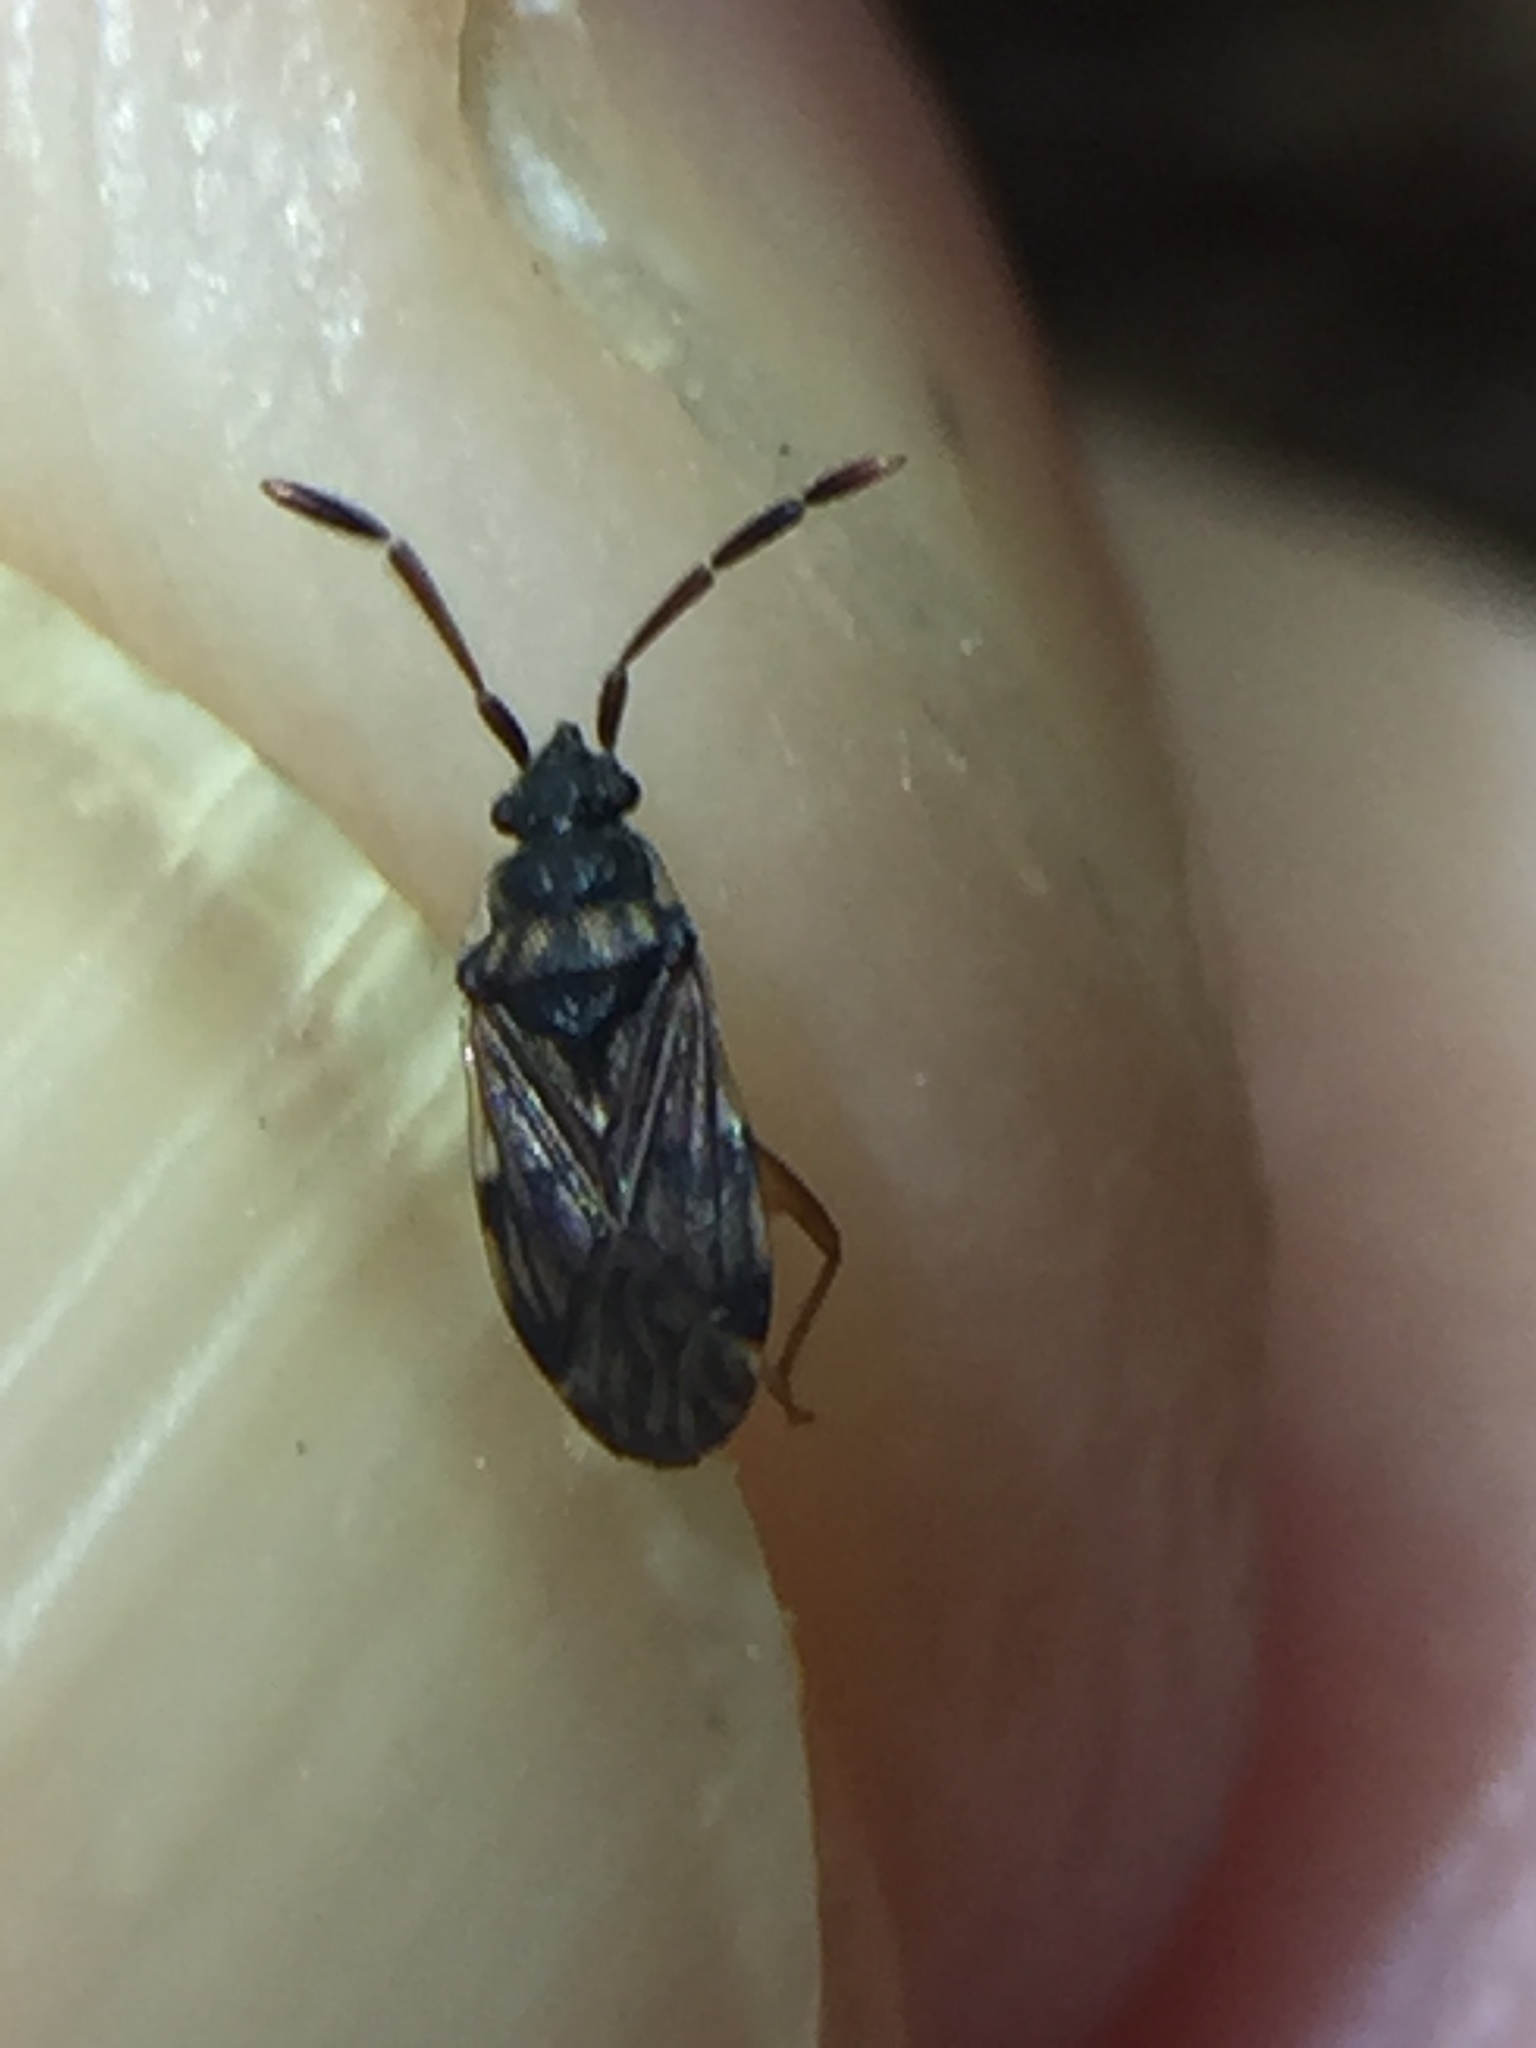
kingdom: Animalia
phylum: Arthropoda
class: Insecta
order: Hemiptera
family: Rhyparochromidae
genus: Grossander
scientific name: Grossander major
